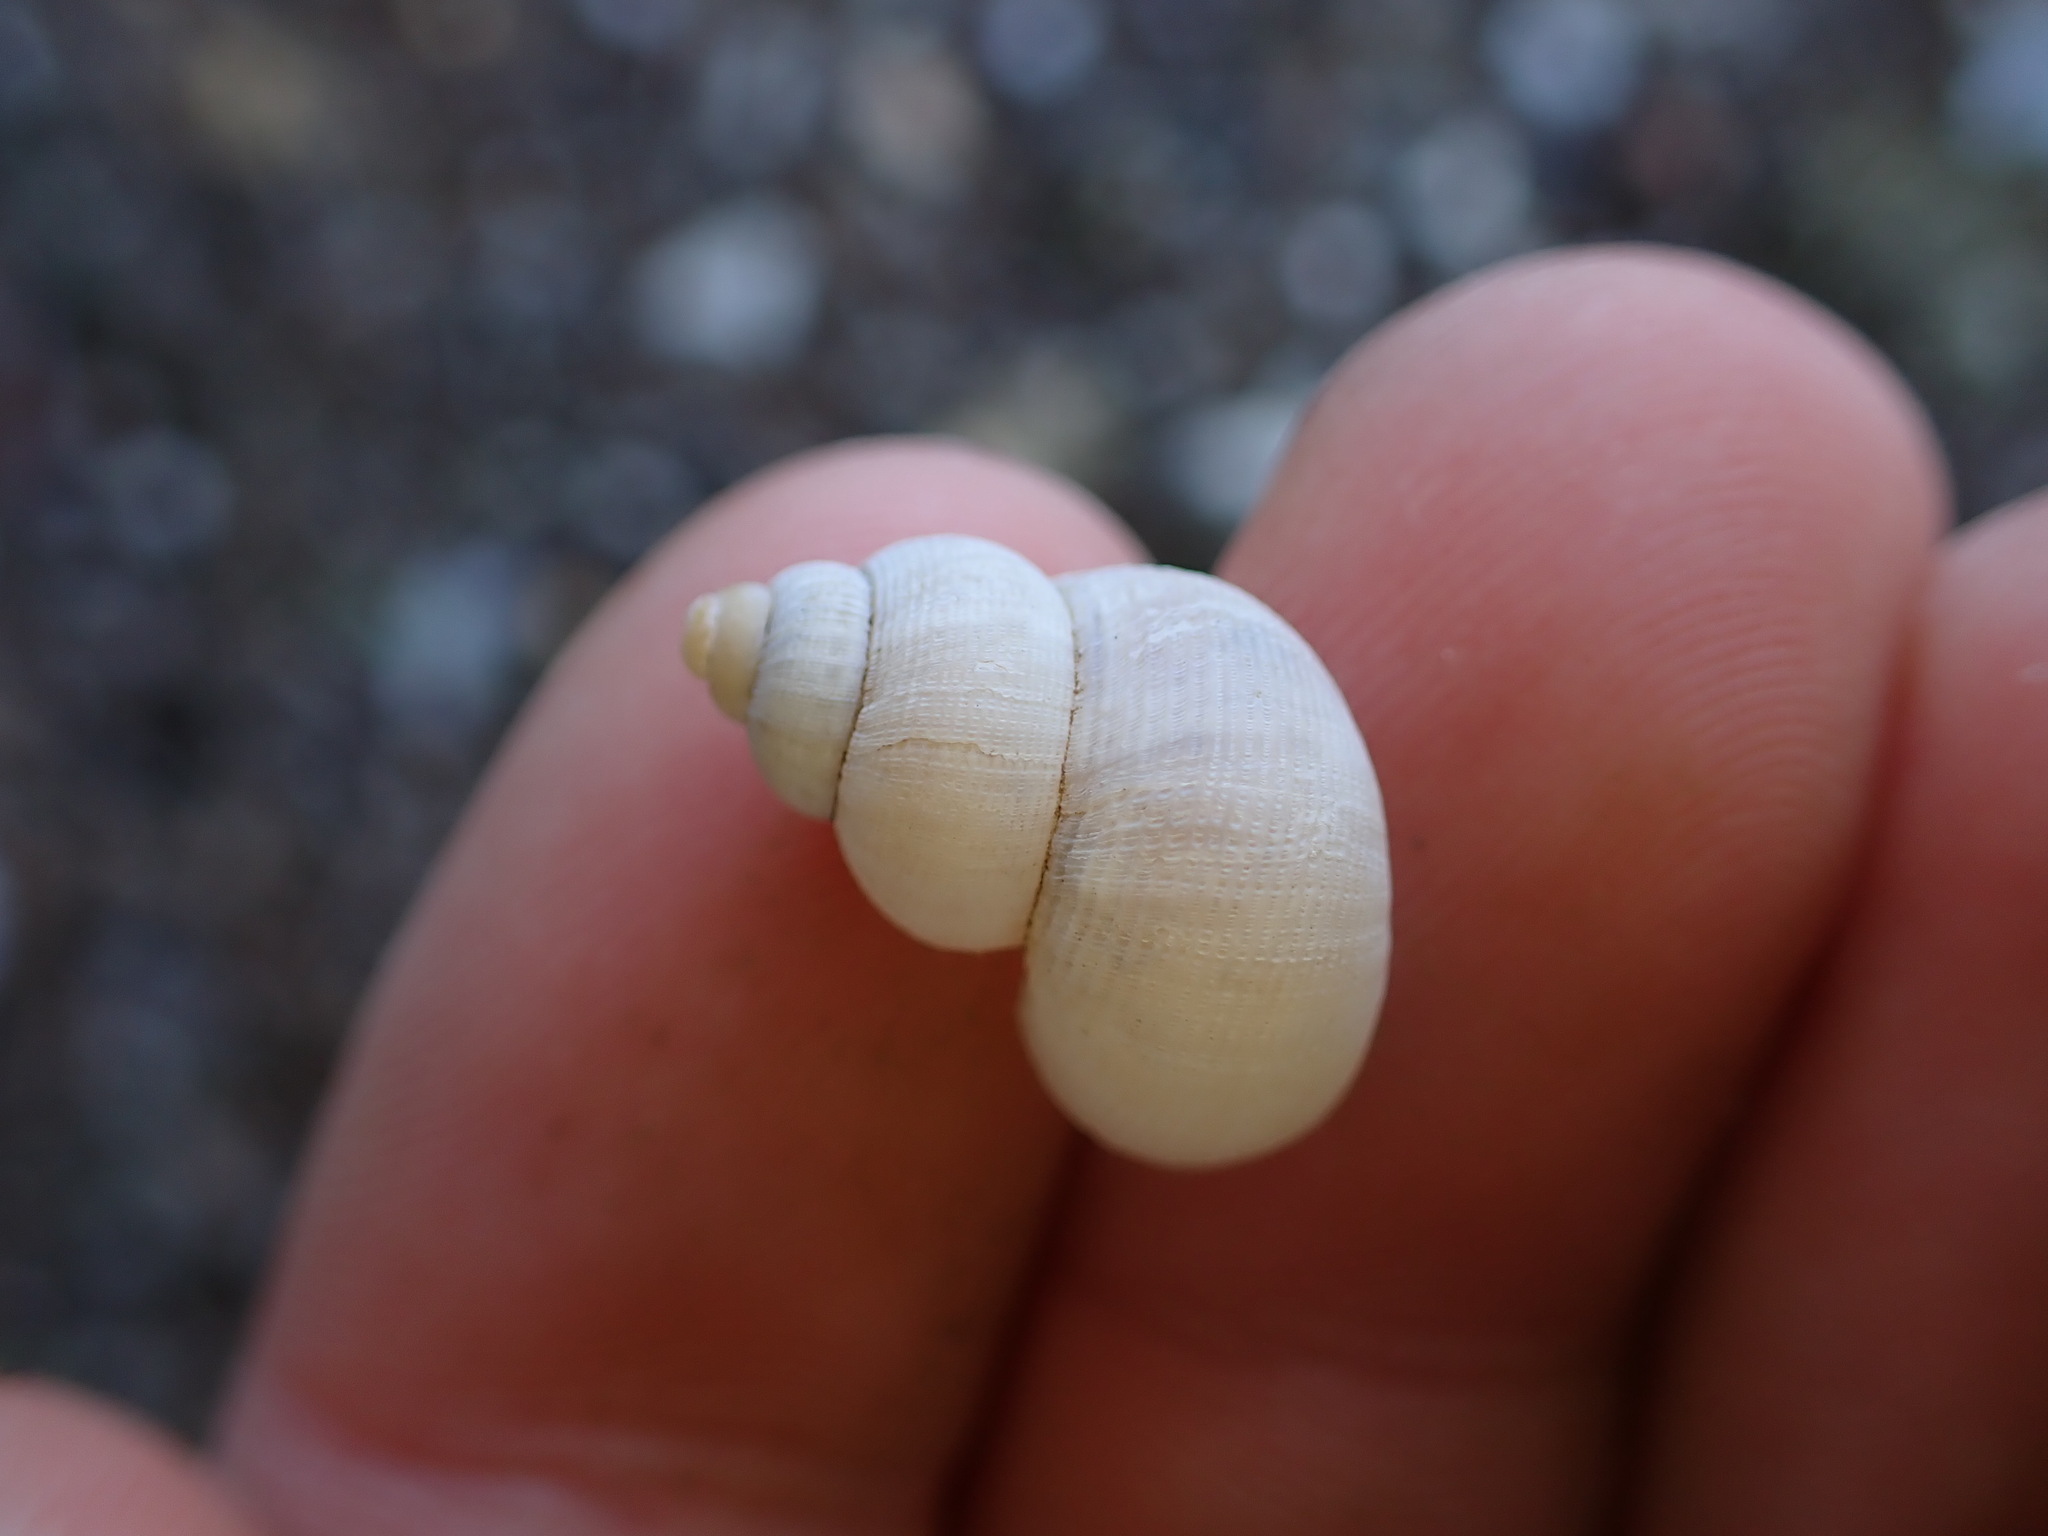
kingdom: Animalia
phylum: Mollusca
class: Gastropoda
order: Littorinimorpha
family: Pomatiidae
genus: Pomatias
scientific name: Pomatias elegans
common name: Red-mouthed snail
